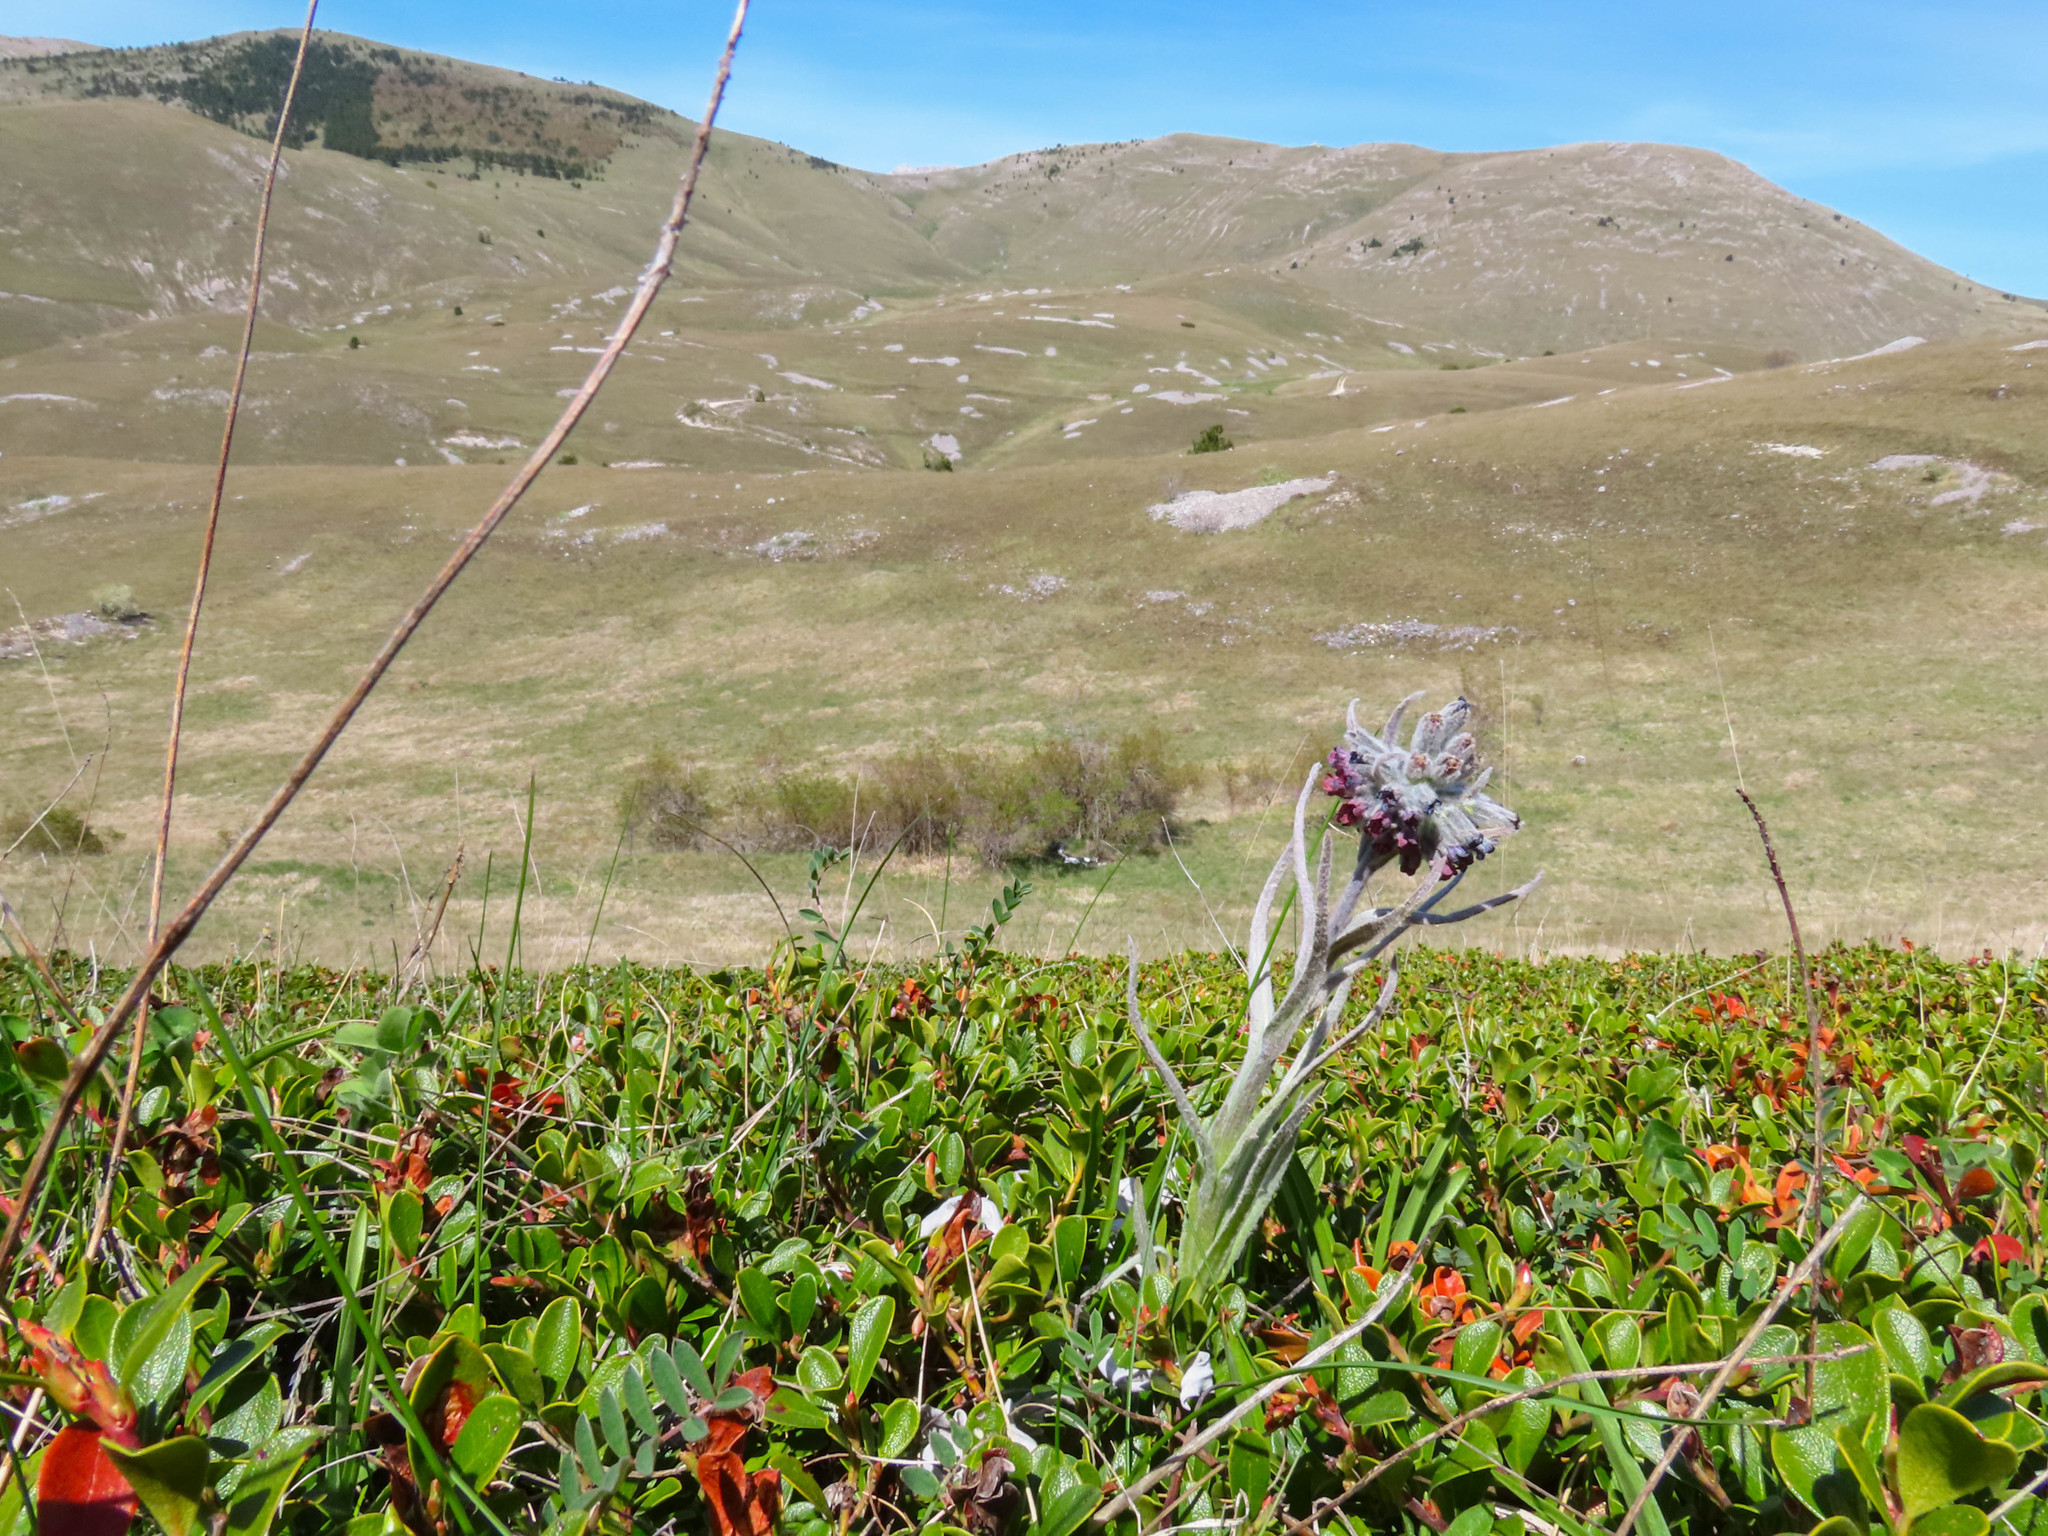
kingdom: Plantae
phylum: Tracheophyta
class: Magnoliopsida
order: Boraginales
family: Boraginaceae
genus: Rindera
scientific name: Rindera magellensis
